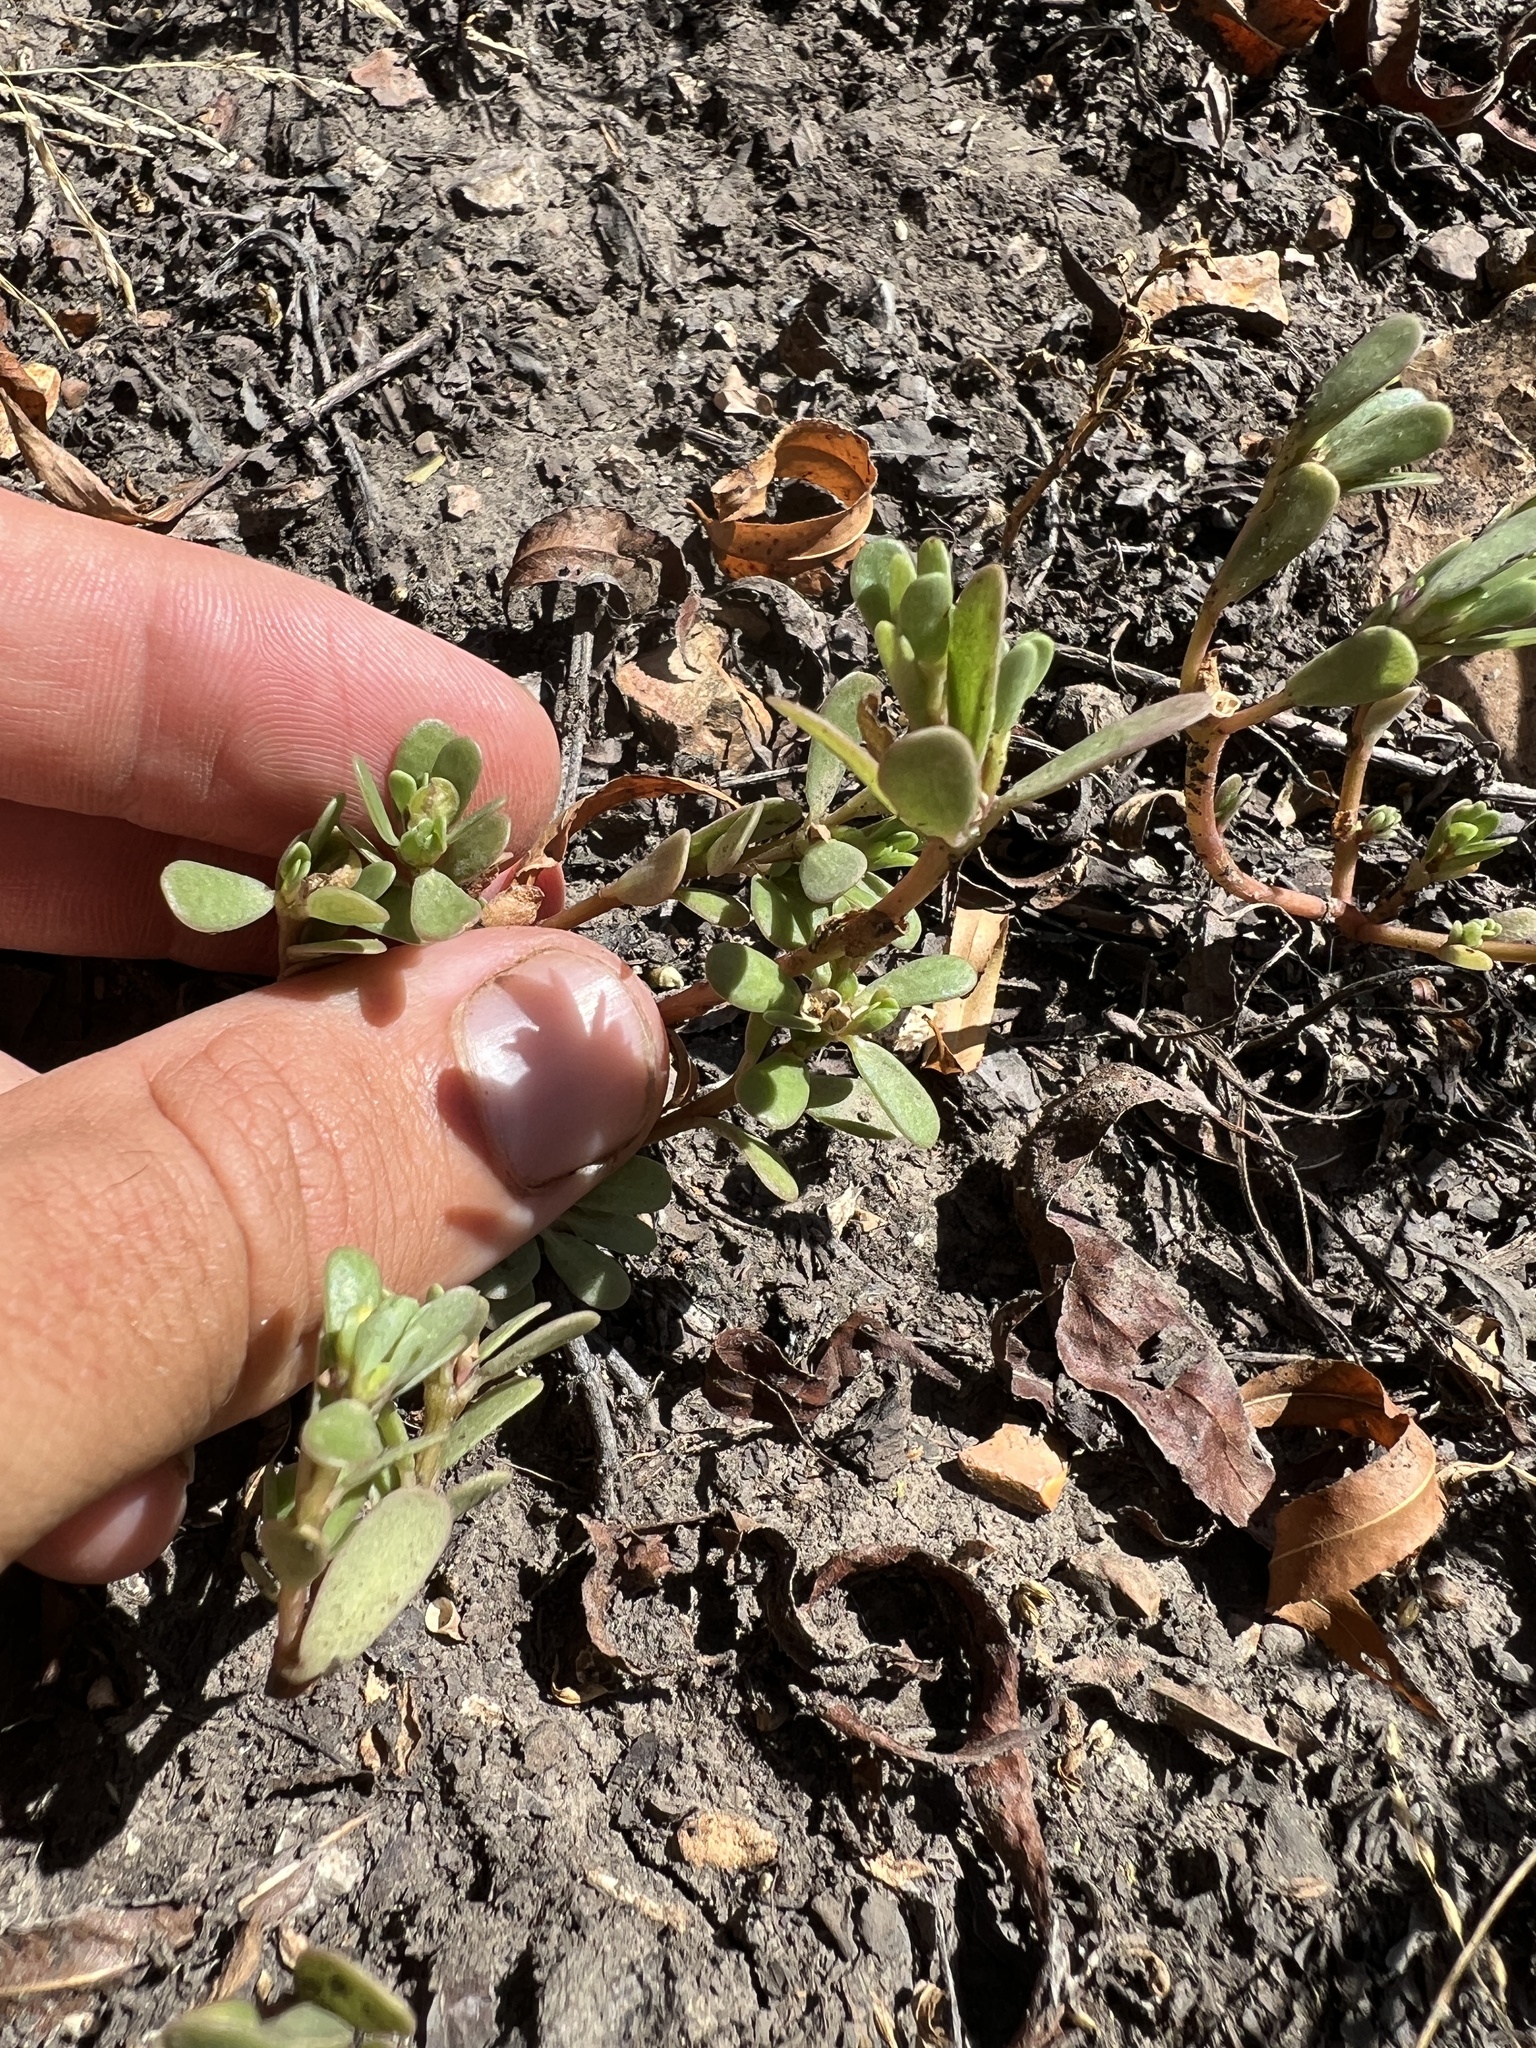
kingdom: Plantae
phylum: Tracheophyta
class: Magnoliopsida
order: Caryophyllales
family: Portulacaceae
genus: Portulaca
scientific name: Portulaca oleracea
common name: Common purslane
